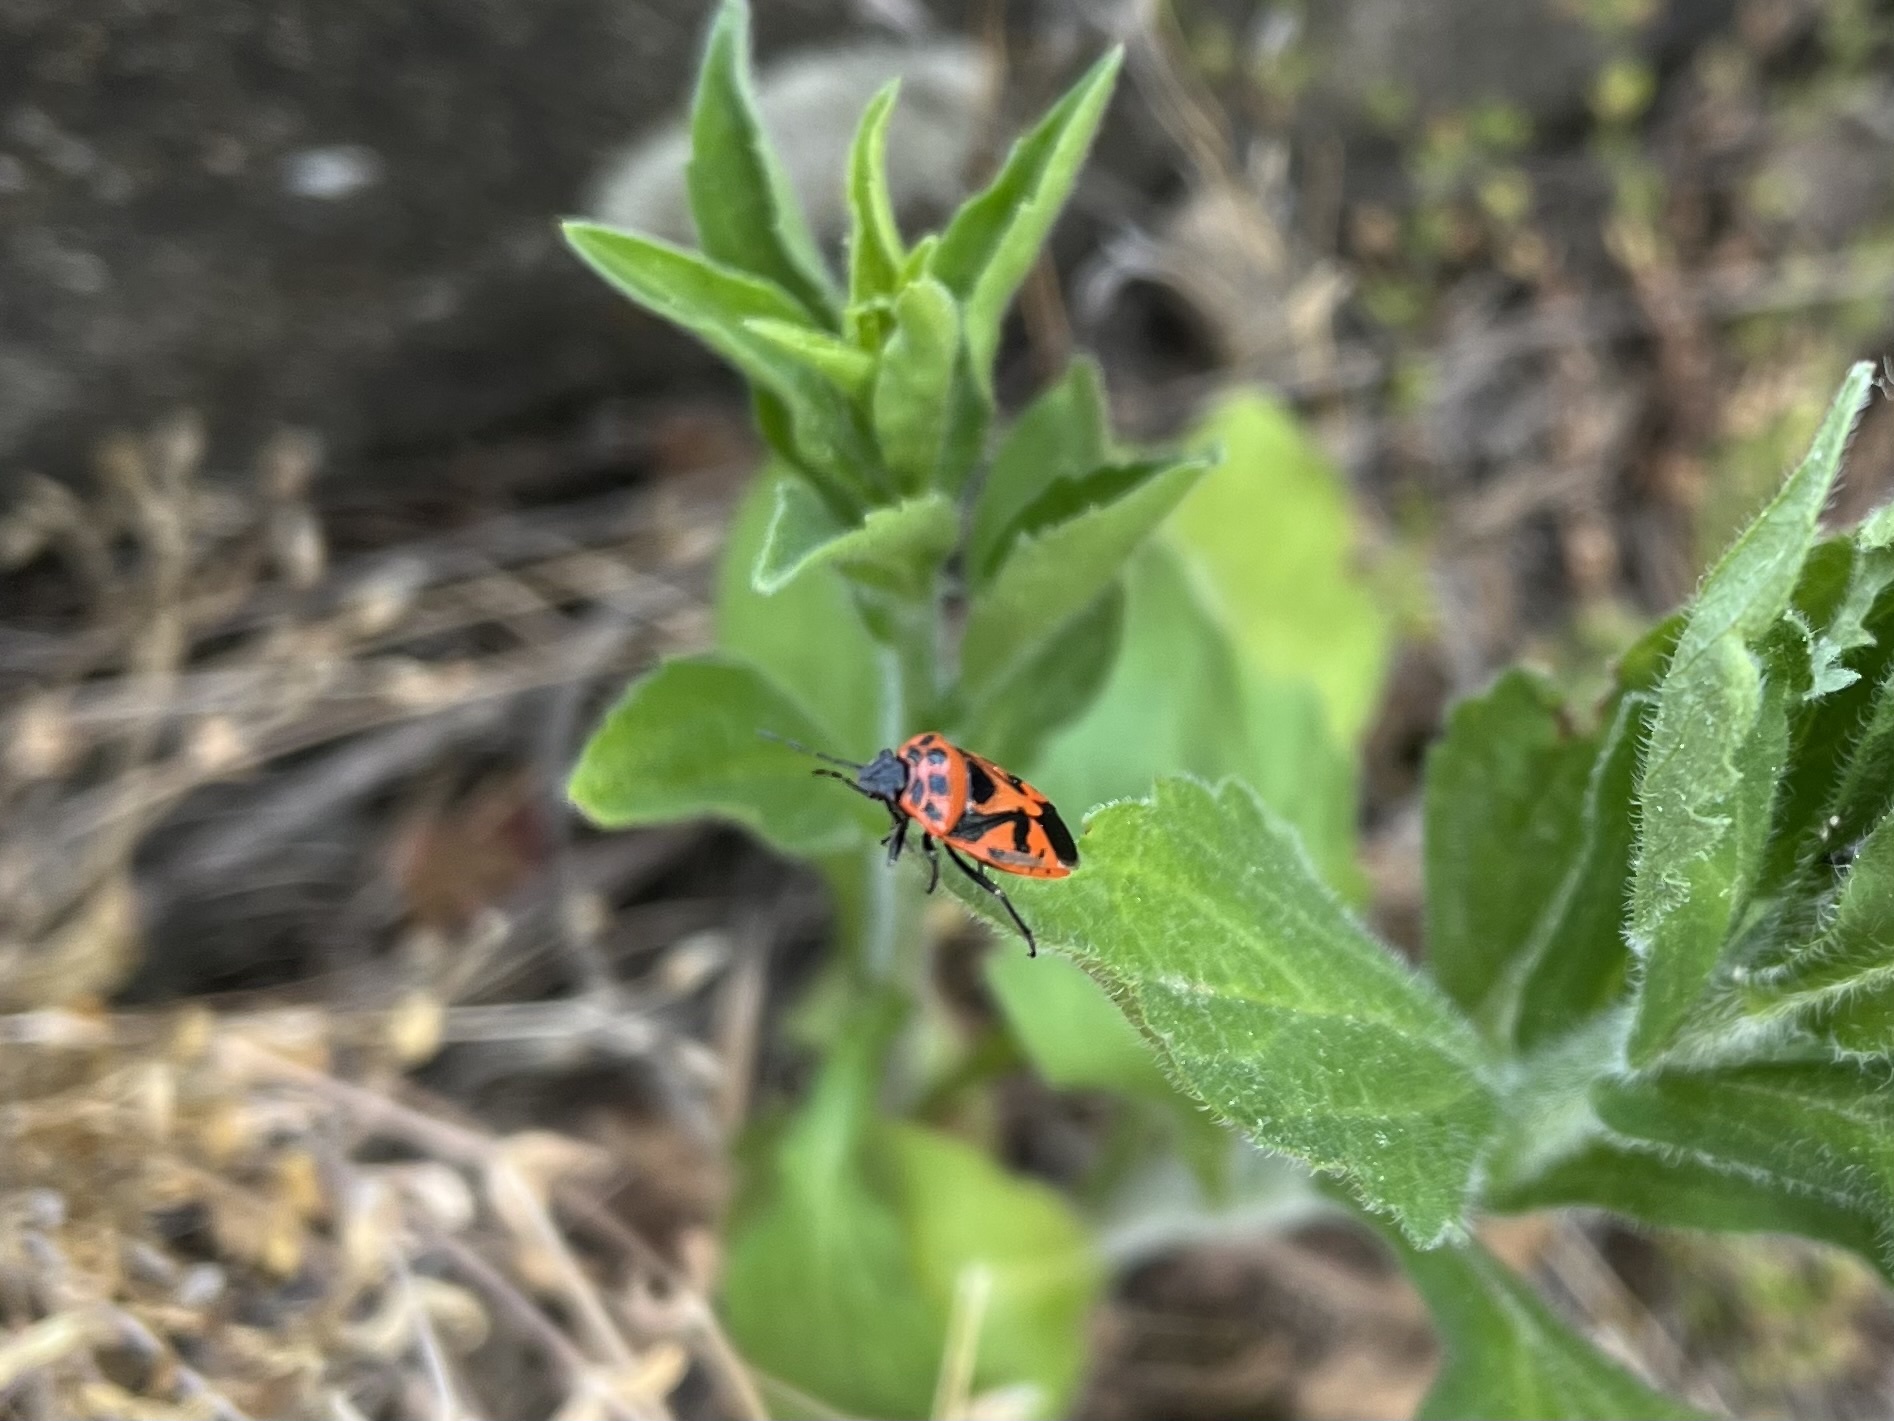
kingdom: Animalia
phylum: Arthropoda
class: Insecta
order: Hemiptera
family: Pentatomidae
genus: Eurydema
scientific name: Eurydema ornata
